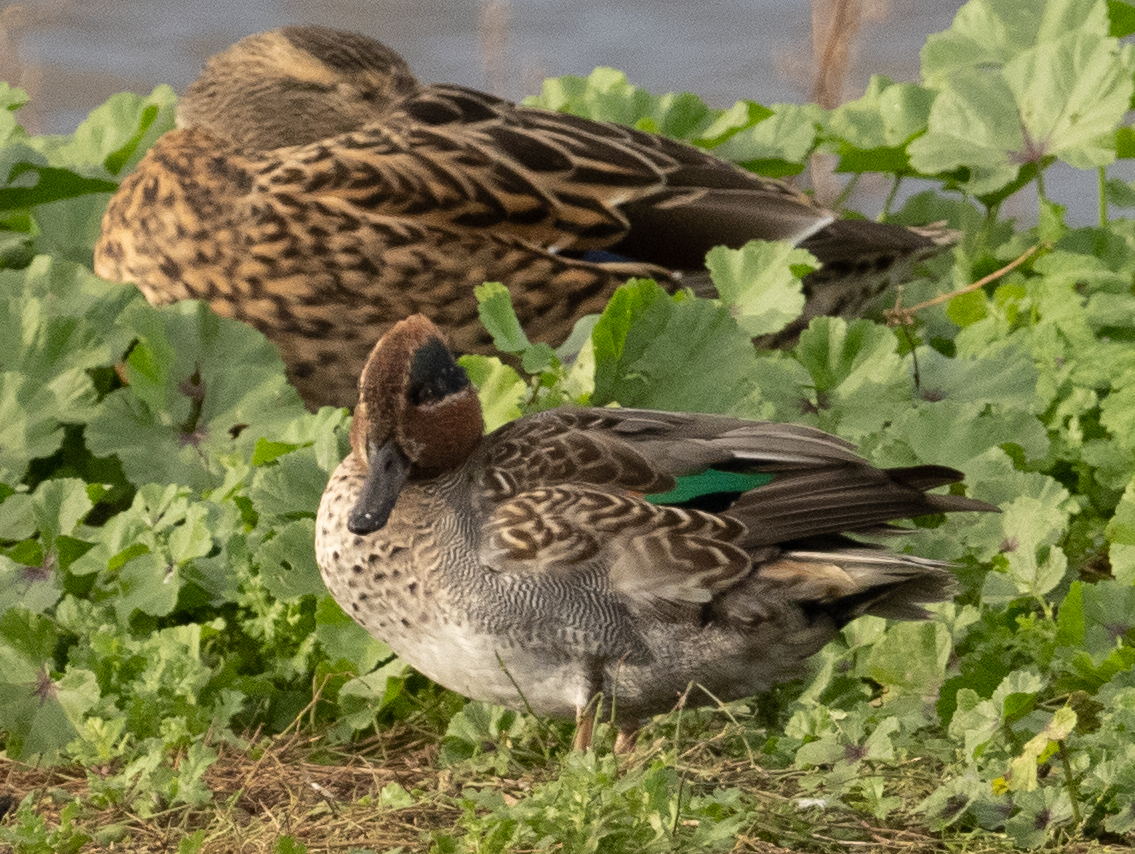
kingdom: Animalia
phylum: Chordata
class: Aves
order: Anseriformes
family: Anatidae
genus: Anas
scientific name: Anas crecca
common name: Eurasian teal
